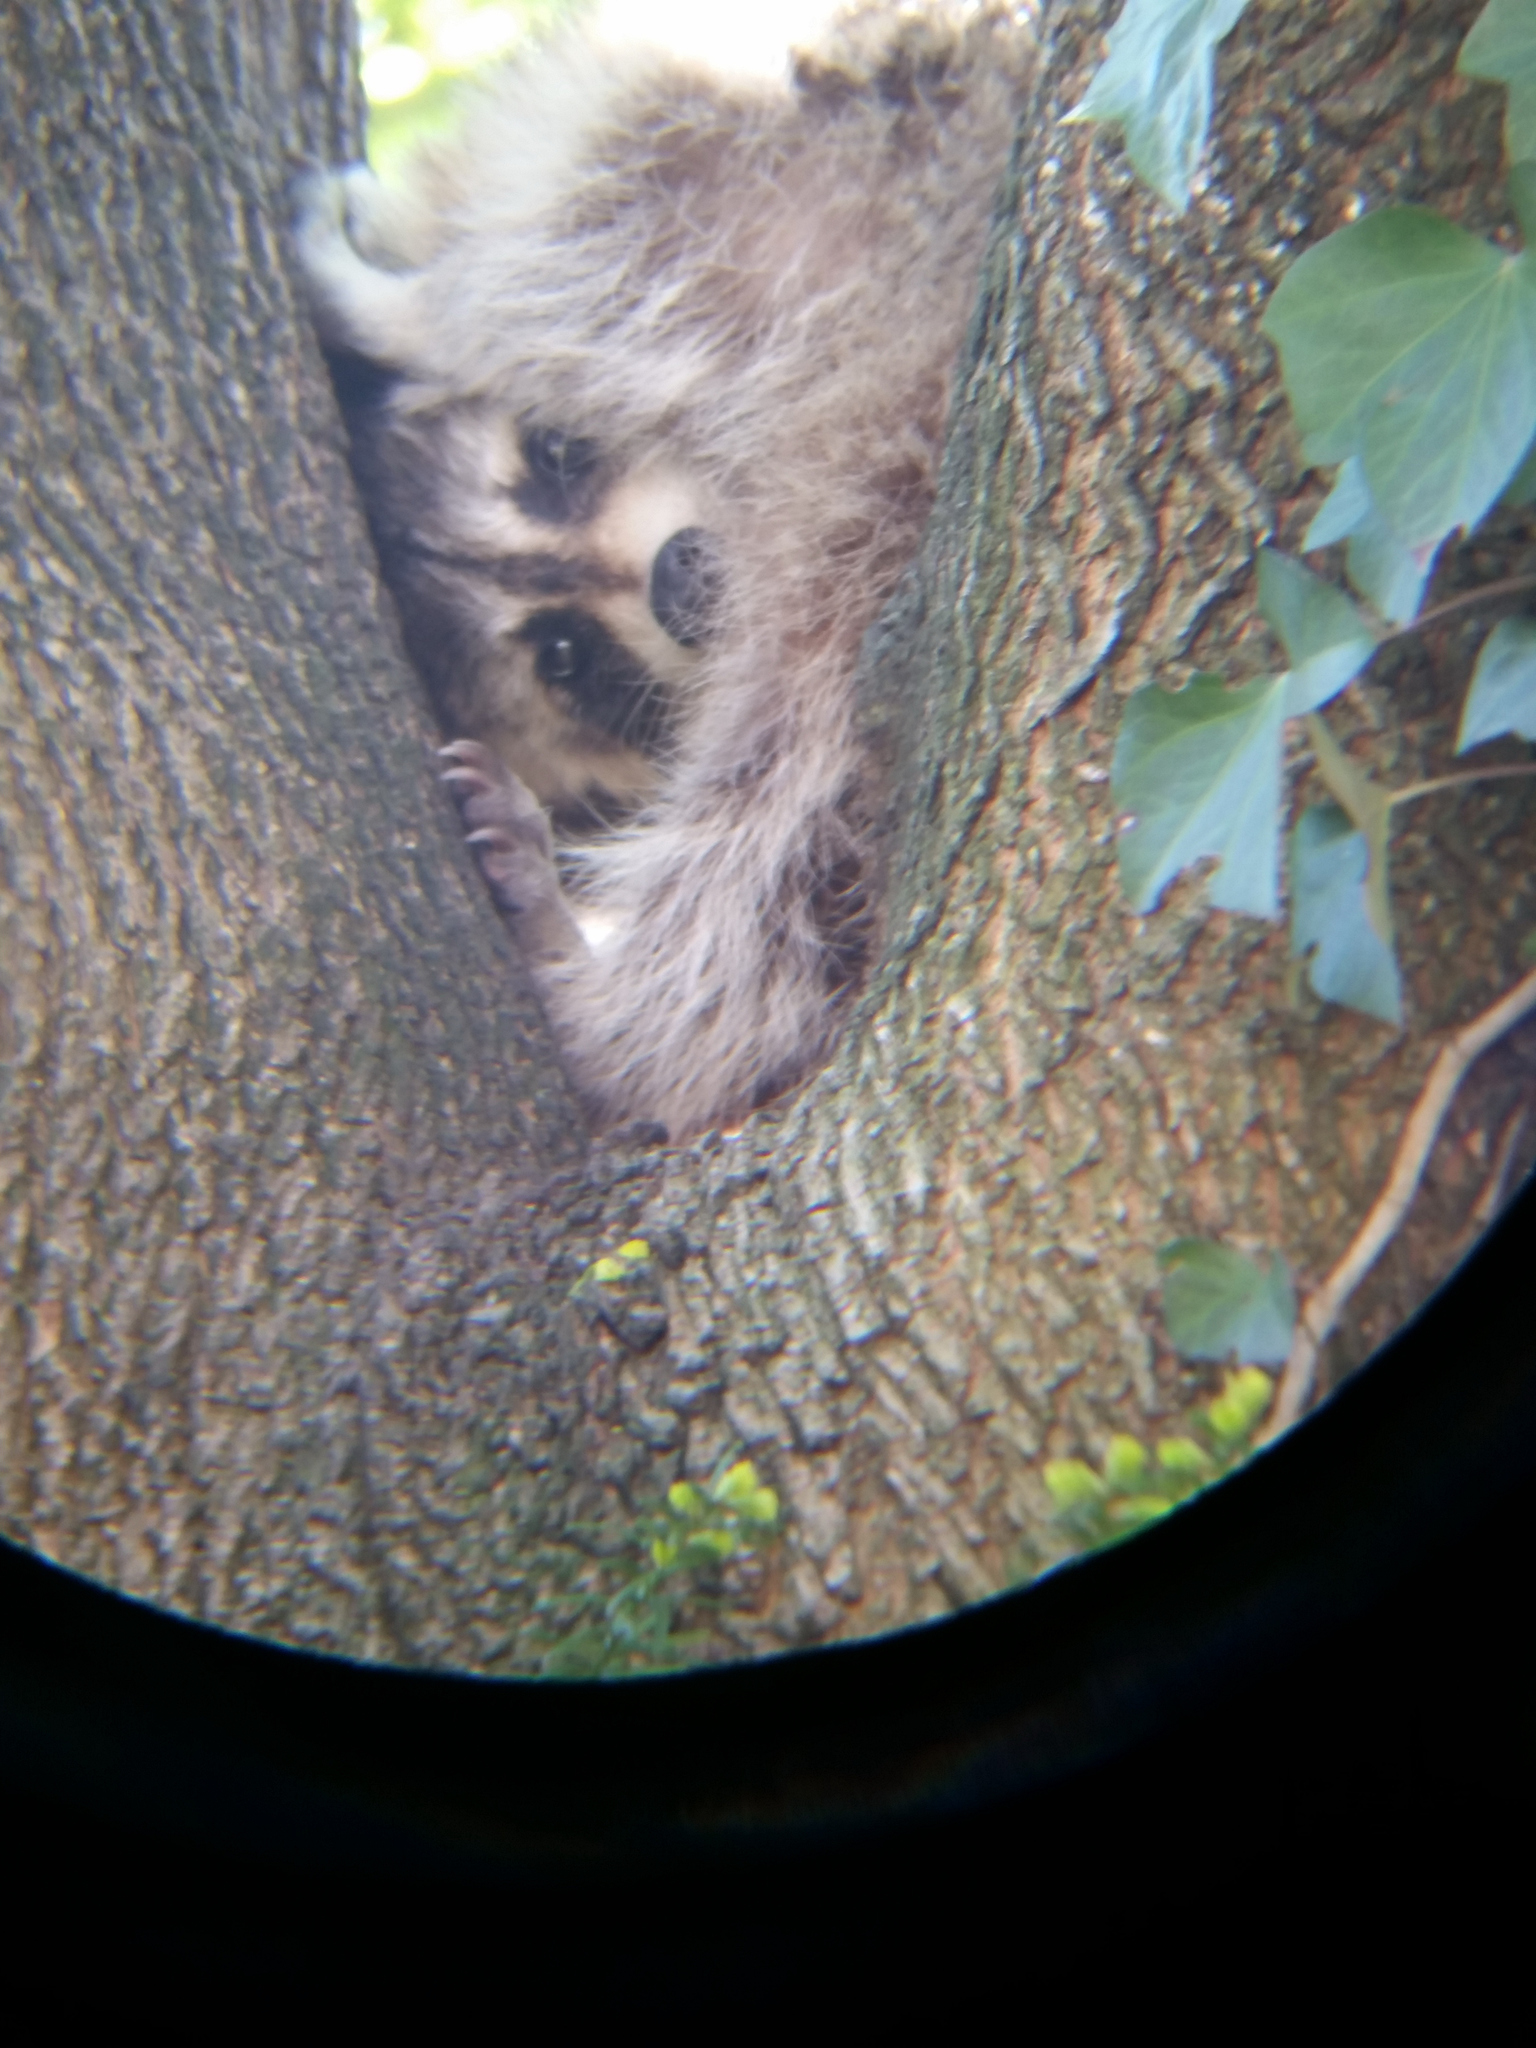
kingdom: Animalia
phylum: Chordata
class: Mammalia
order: Carnivora
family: Procyonidae
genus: Procyon
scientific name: Procyon lotor
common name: Raccoon
